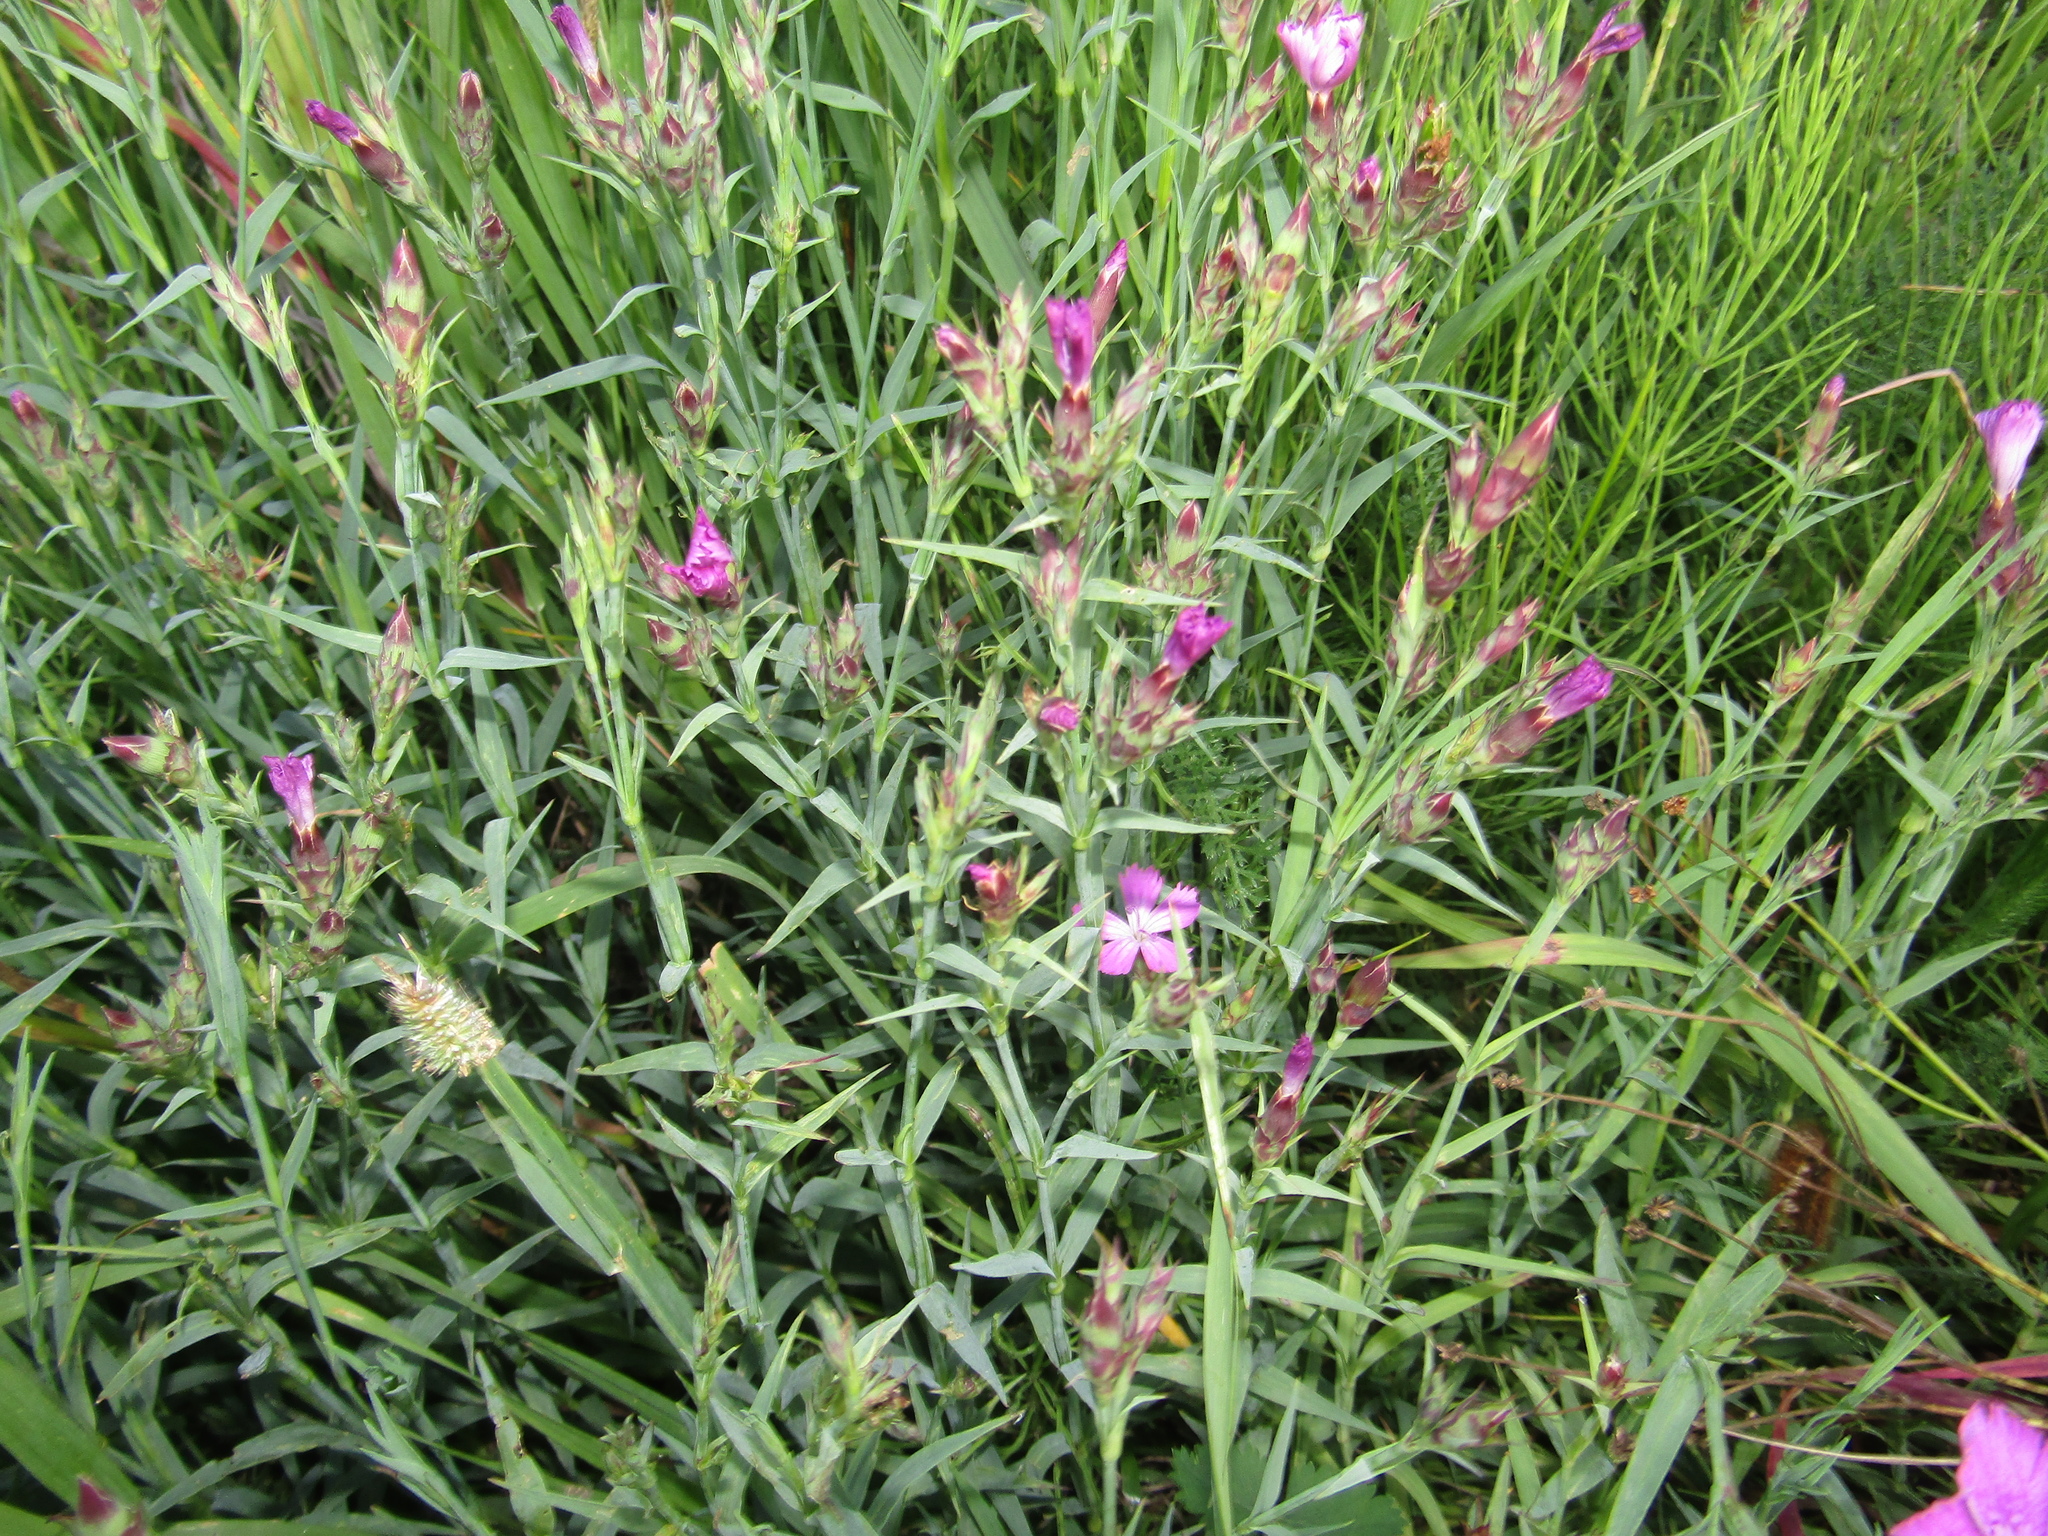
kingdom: Plantae
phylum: Tracheophyta
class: Magnoliopsida
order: Caryophyllales
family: Caryophyllaceae
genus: Dianthus
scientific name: Dianthus chinensis
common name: Rainbow pink
